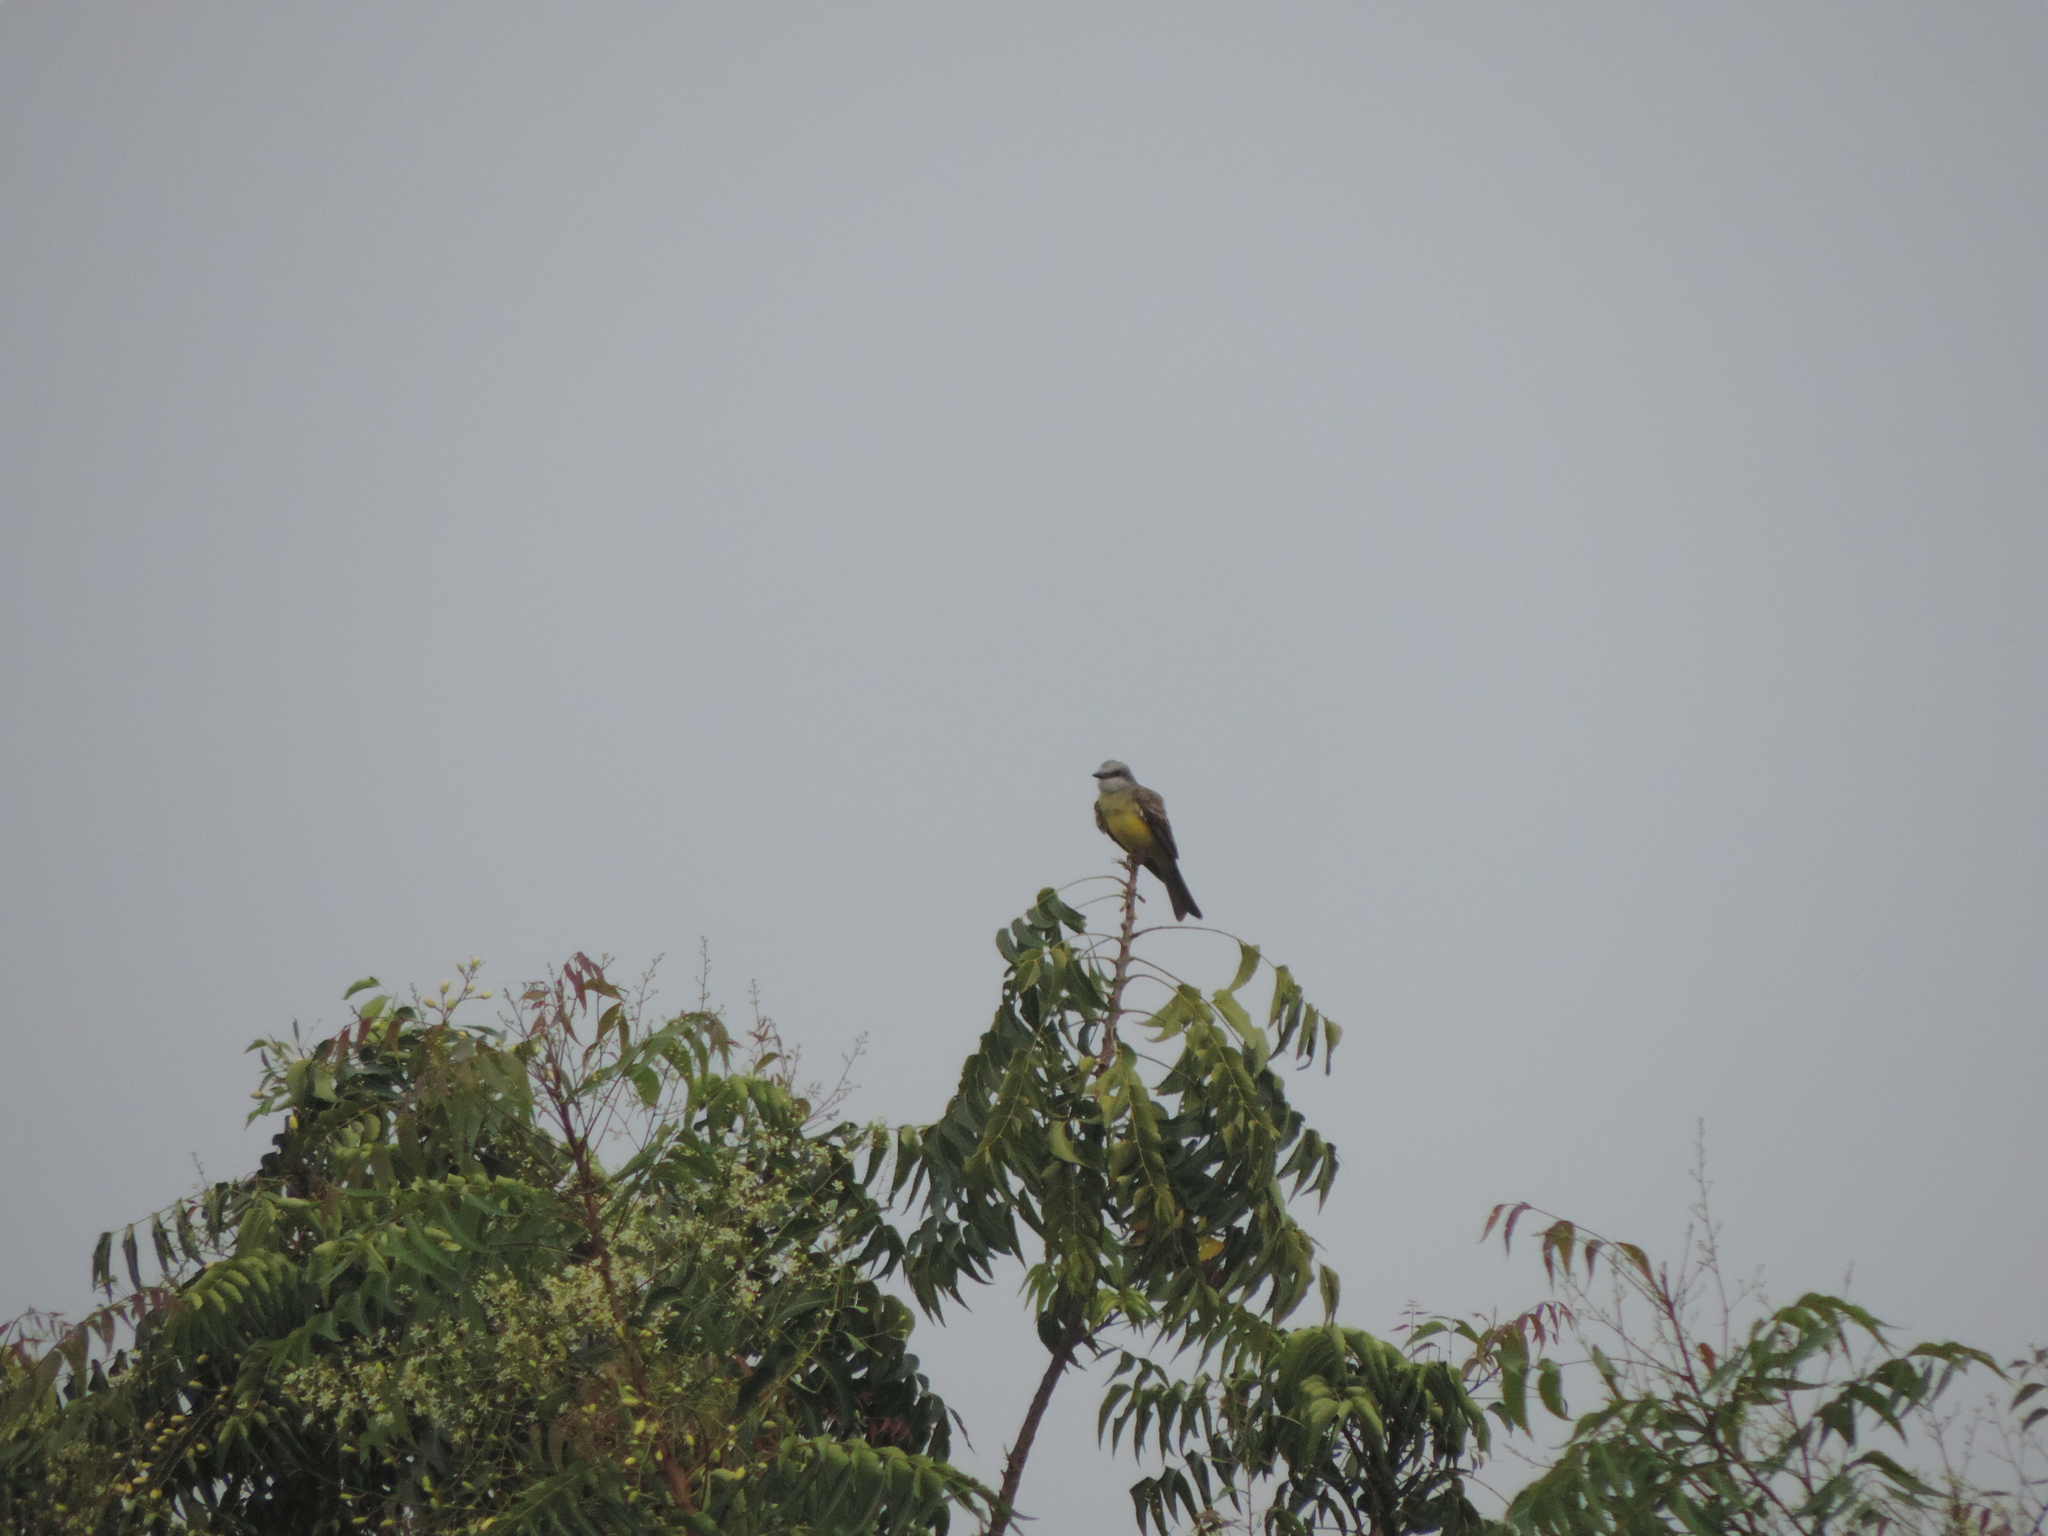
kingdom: Animalia
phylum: Chordata
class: Aves
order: Passeriformes
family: Tyrannidae
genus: Tyrannus
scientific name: Tyrannus melancholicus
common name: Tropical kingbird
